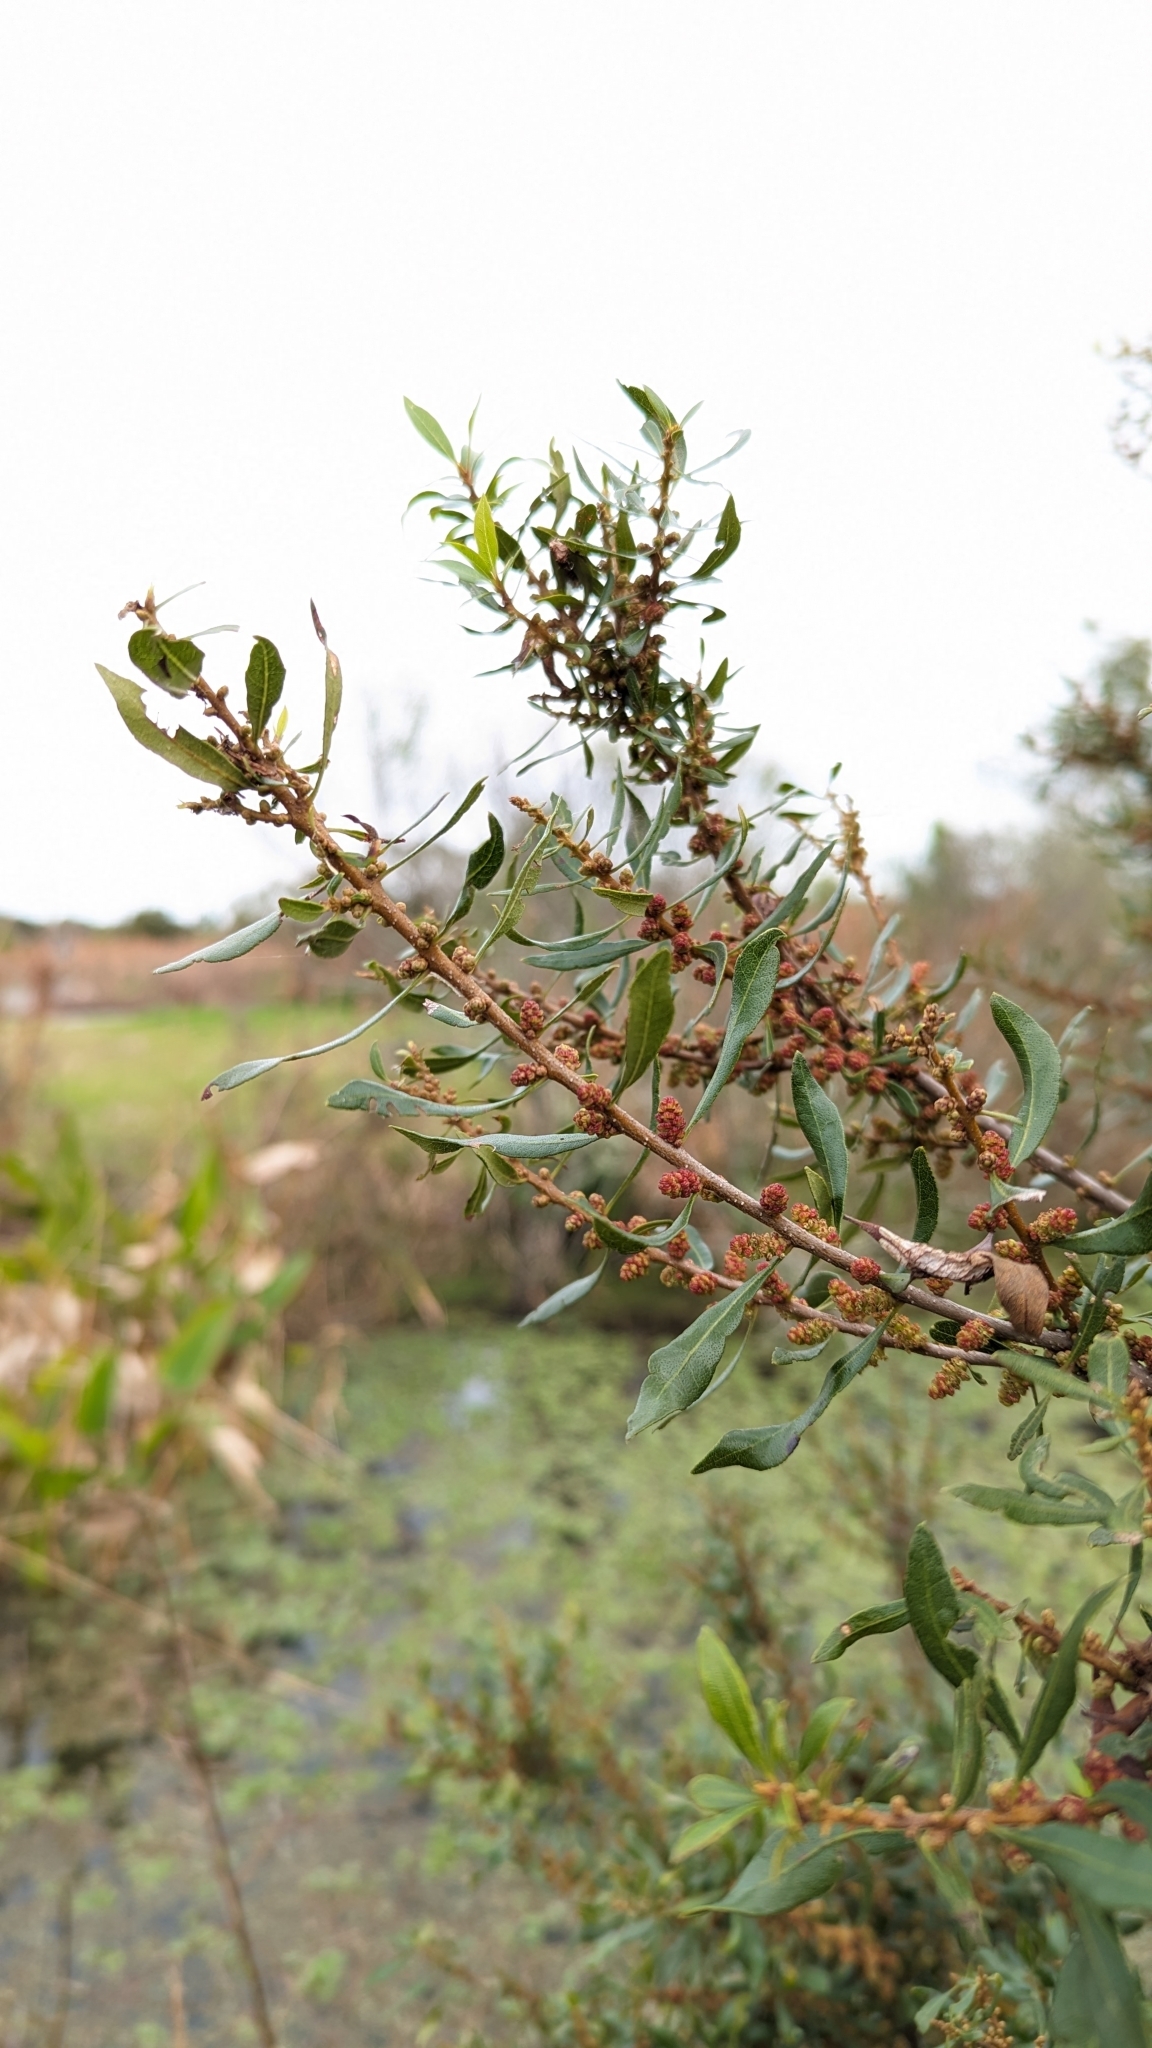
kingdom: Plantae
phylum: Tracheophyta
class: Magnoliopsida
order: Fagales
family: Myricaceae
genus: Morella
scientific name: Morella cerifera
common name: Wax myrtle
